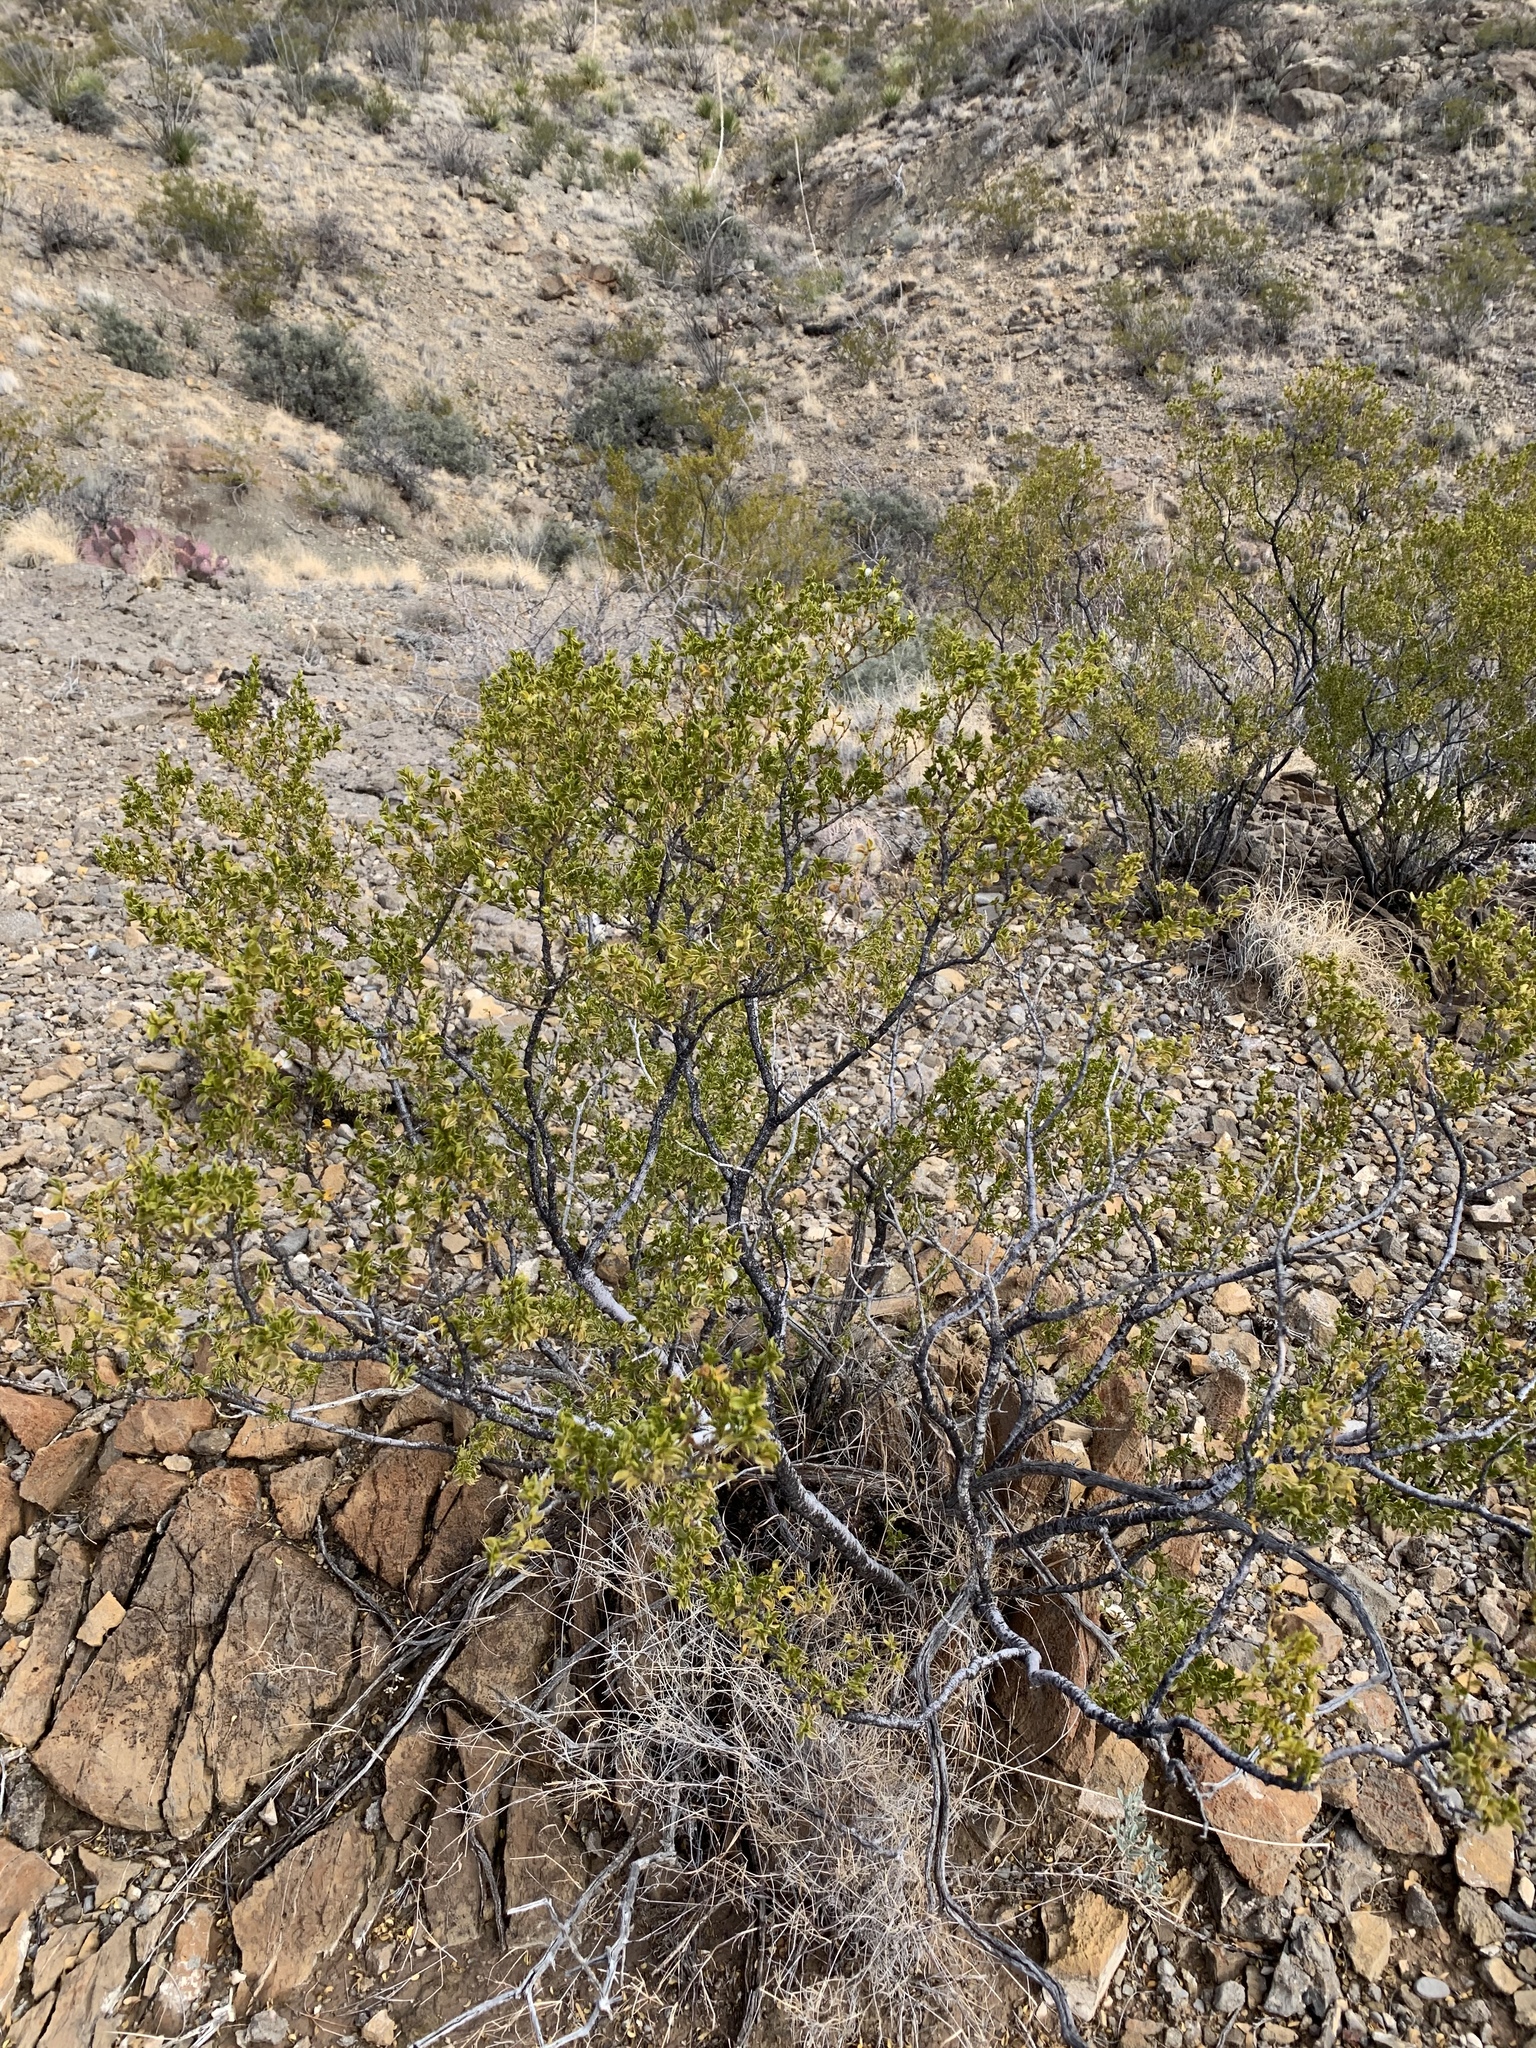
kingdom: Plantae
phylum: Tracheophyta
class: Magnoliopsida
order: Zygophyllales
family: Zygophyllaceae
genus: Larrea
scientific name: Larrea tridentata
